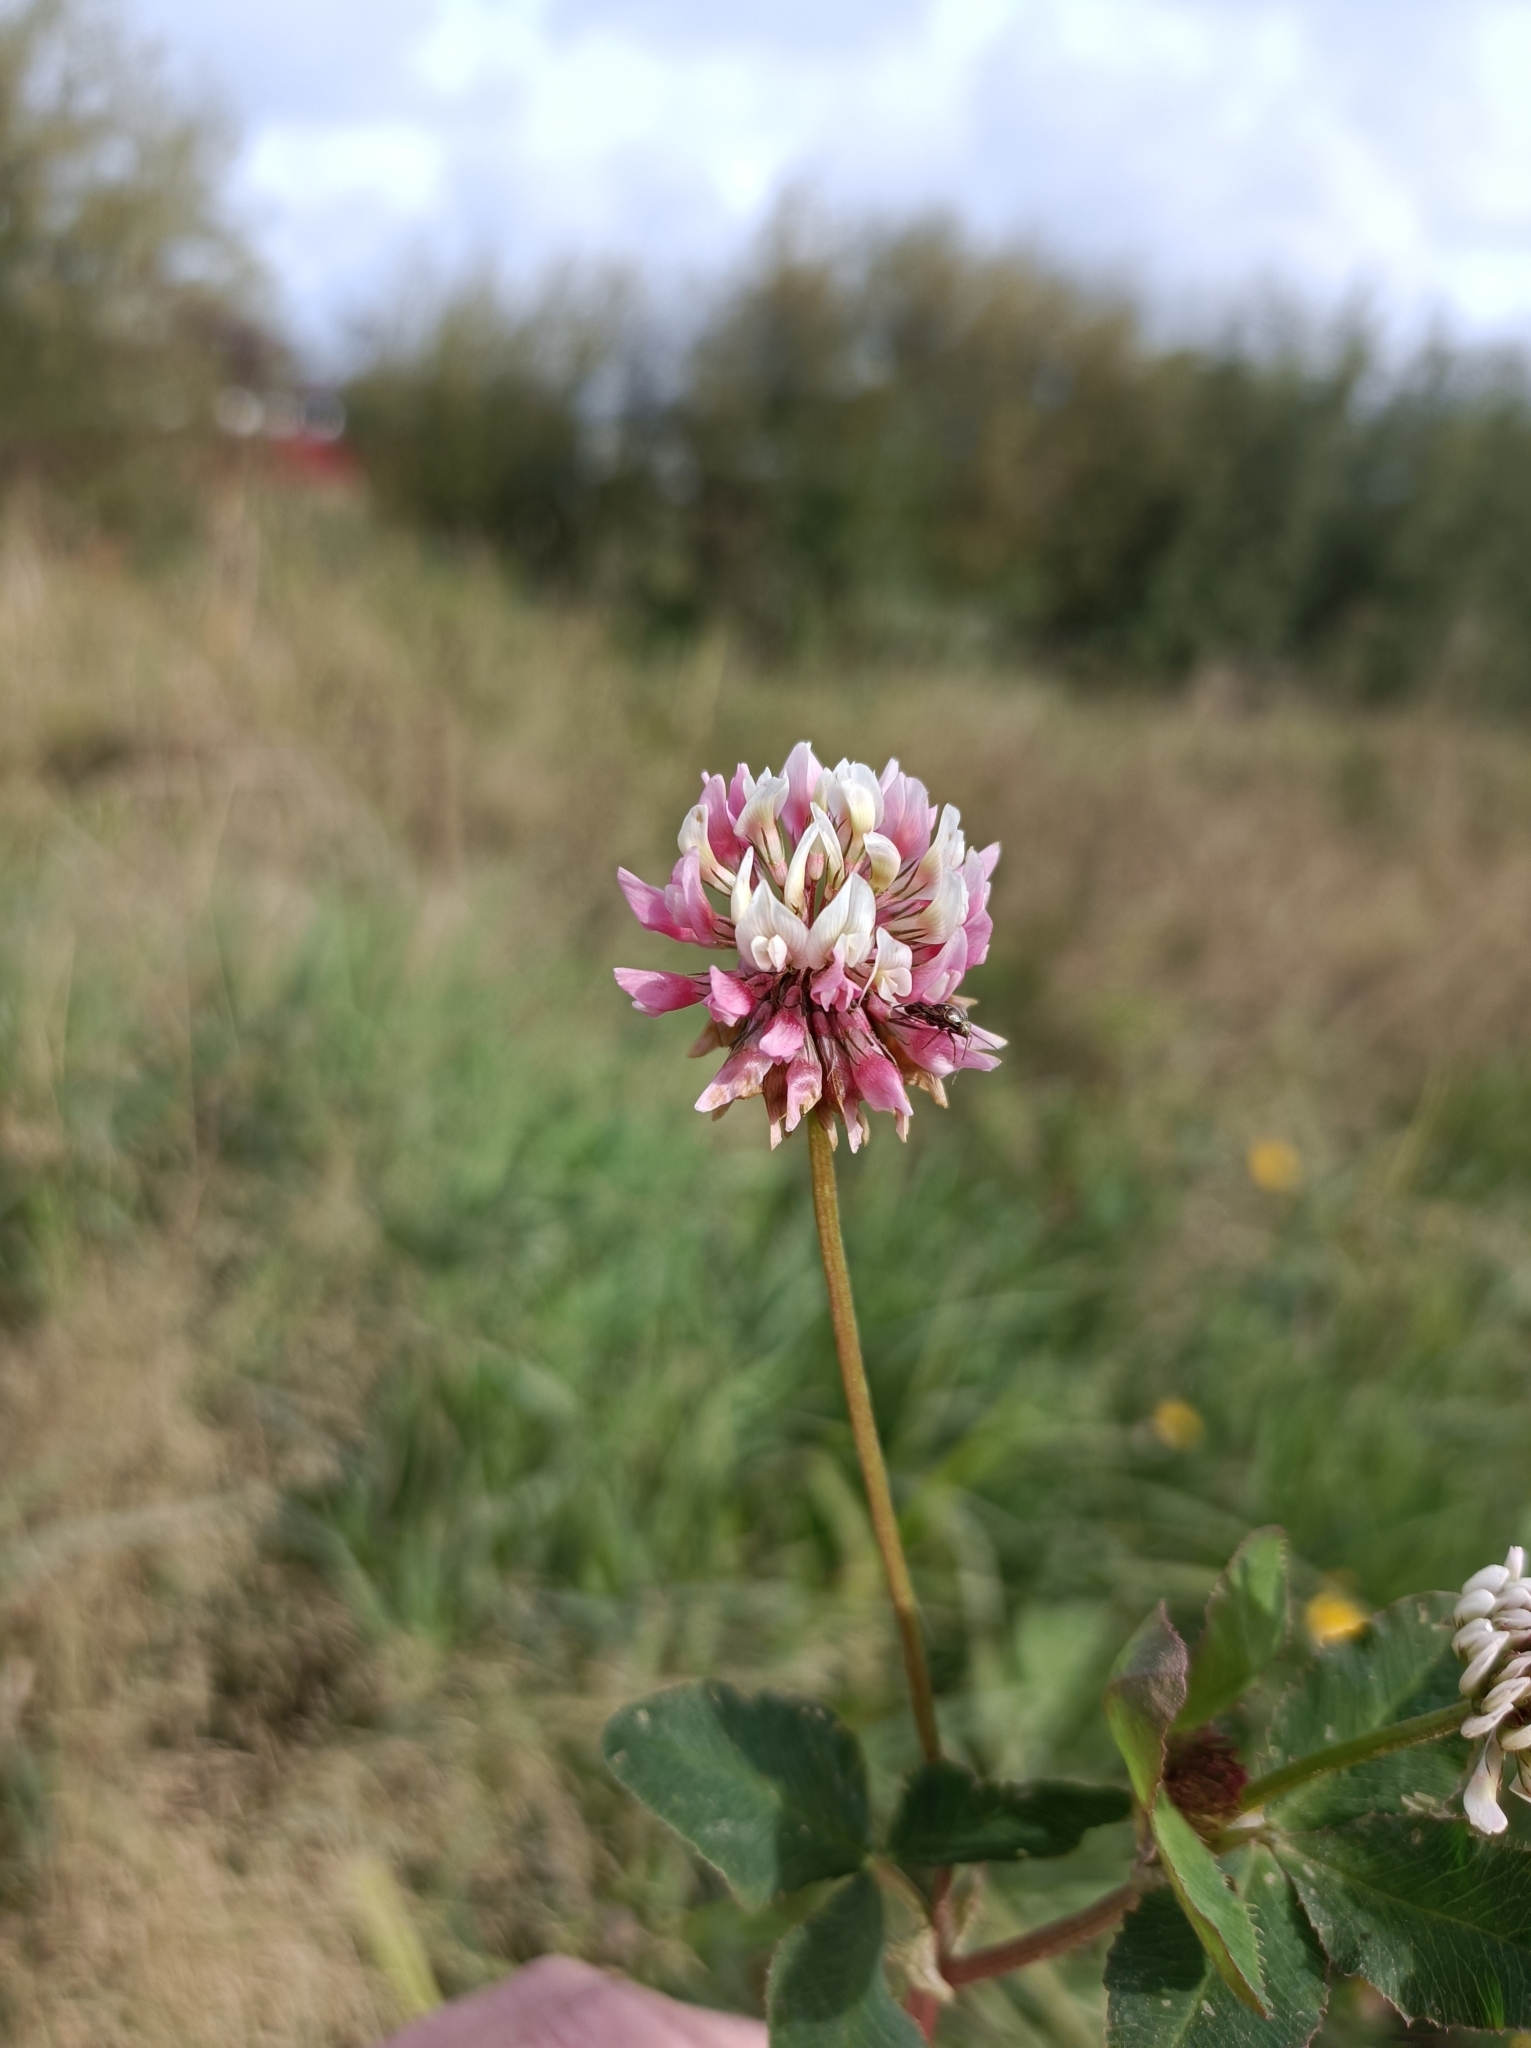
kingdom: Plantae
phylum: Tracheophyta
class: Magnoliopsida
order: Fabales
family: Fabaceae
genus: Trifolium
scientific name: Trifolium hybridum
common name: Alsike clover
